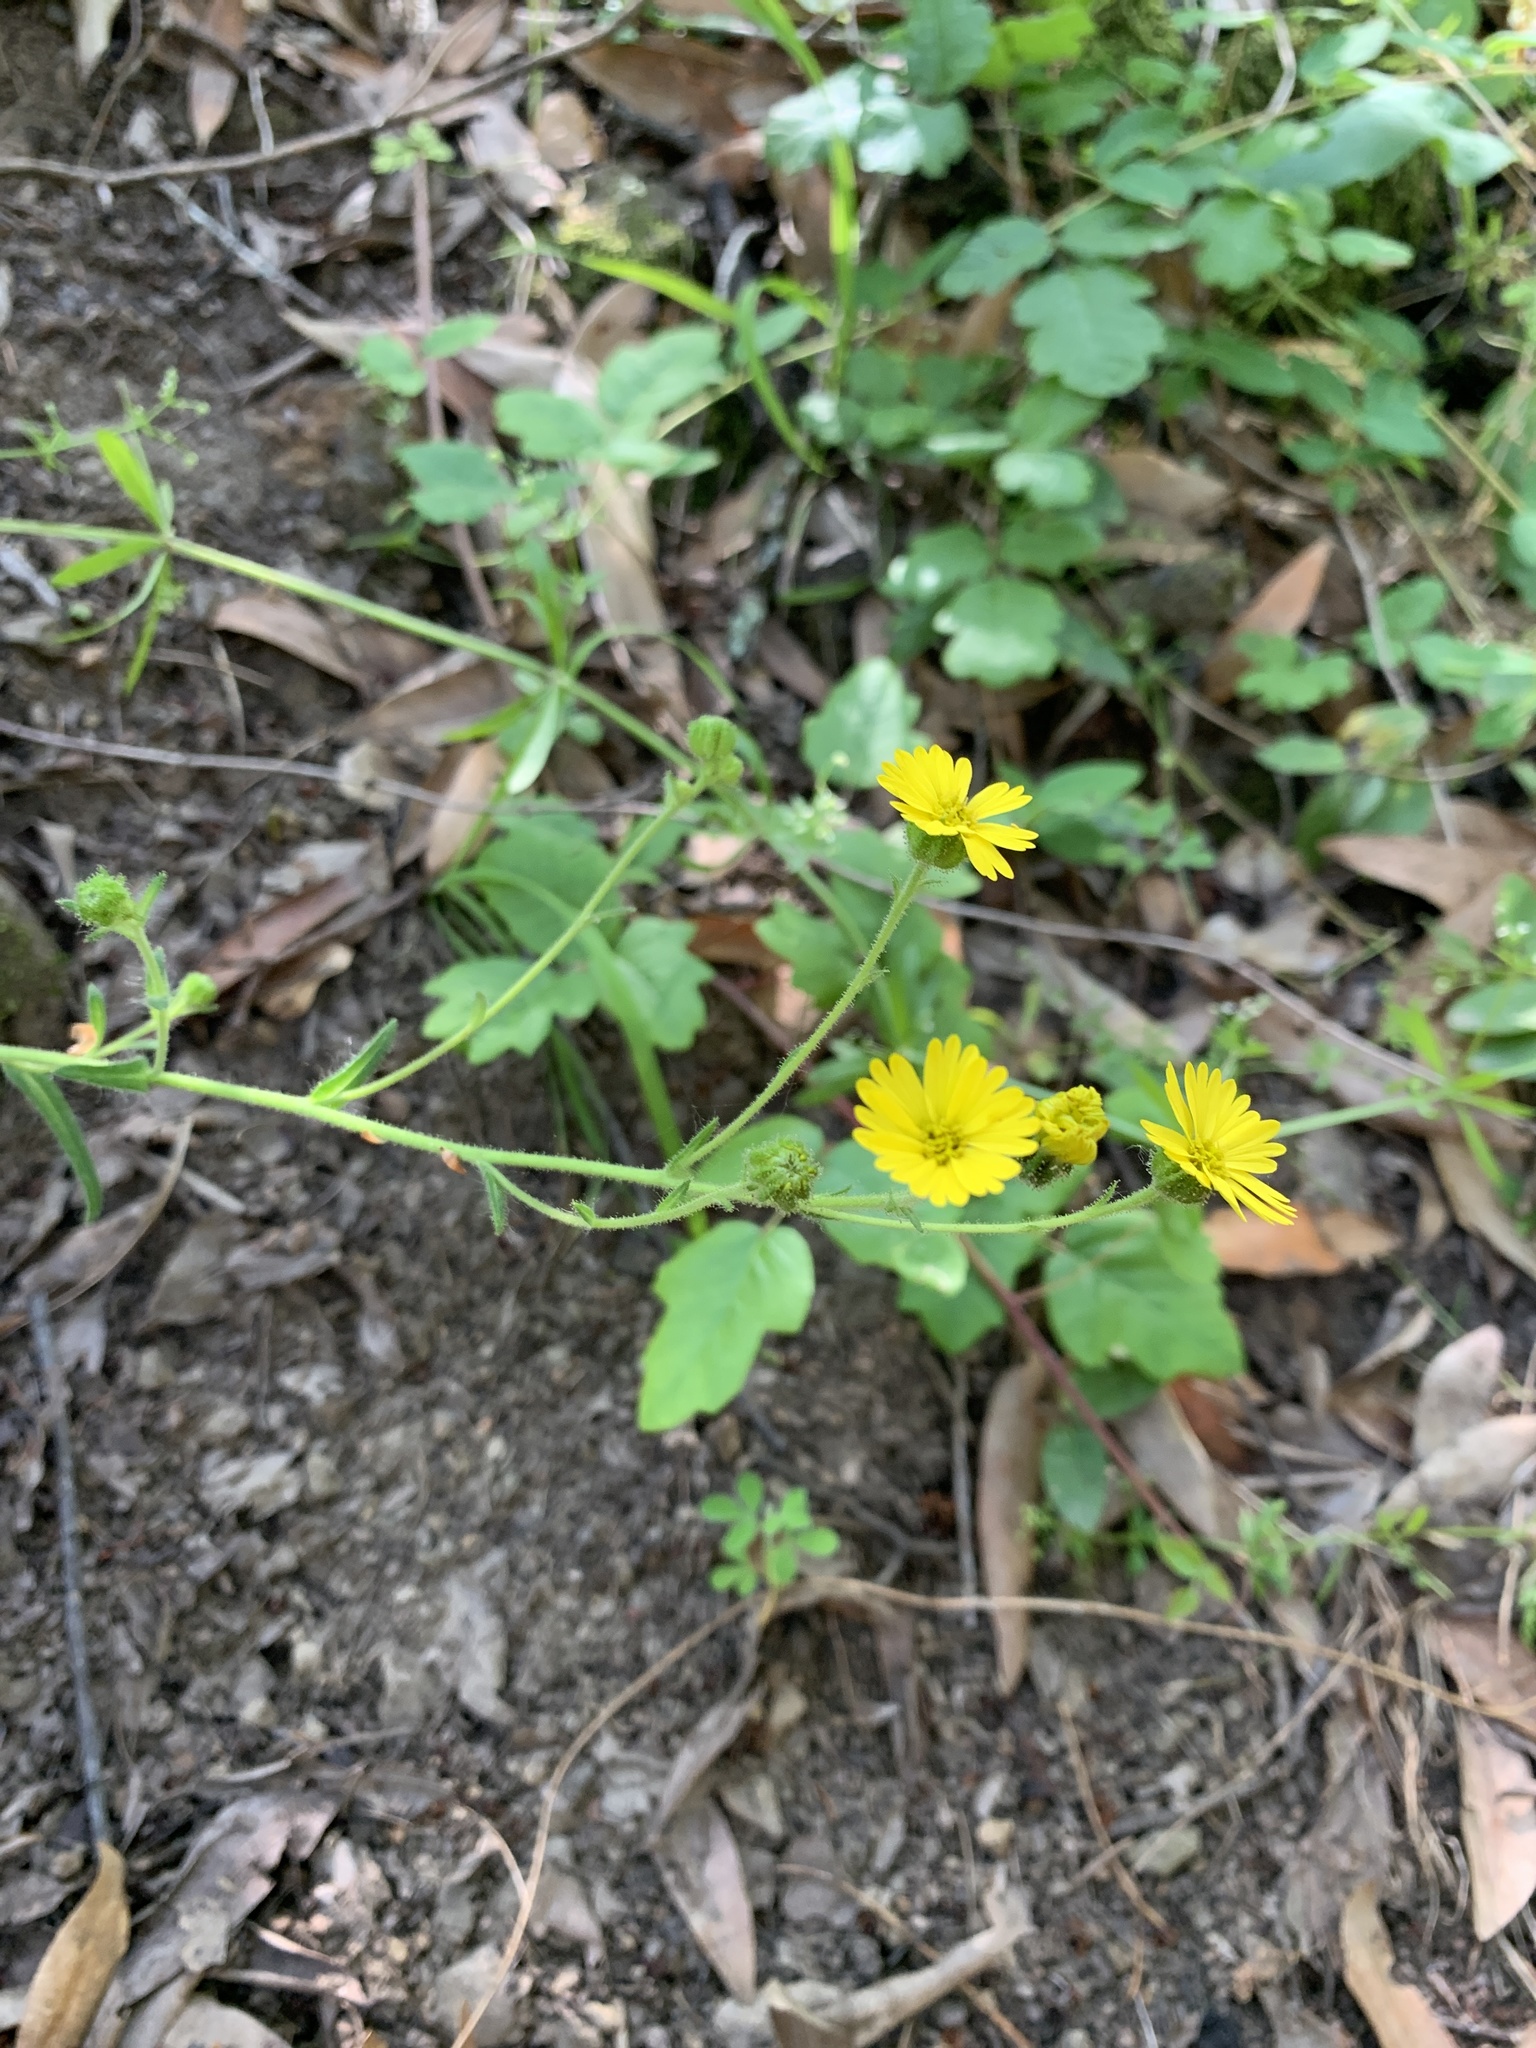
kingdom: Plantae
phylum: Tracheophyta
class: Magnoliopsida
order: Asterales
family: Asteraceae
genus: Anisocarpus
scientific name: Anisocarpus madioides
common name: Woodland madia
